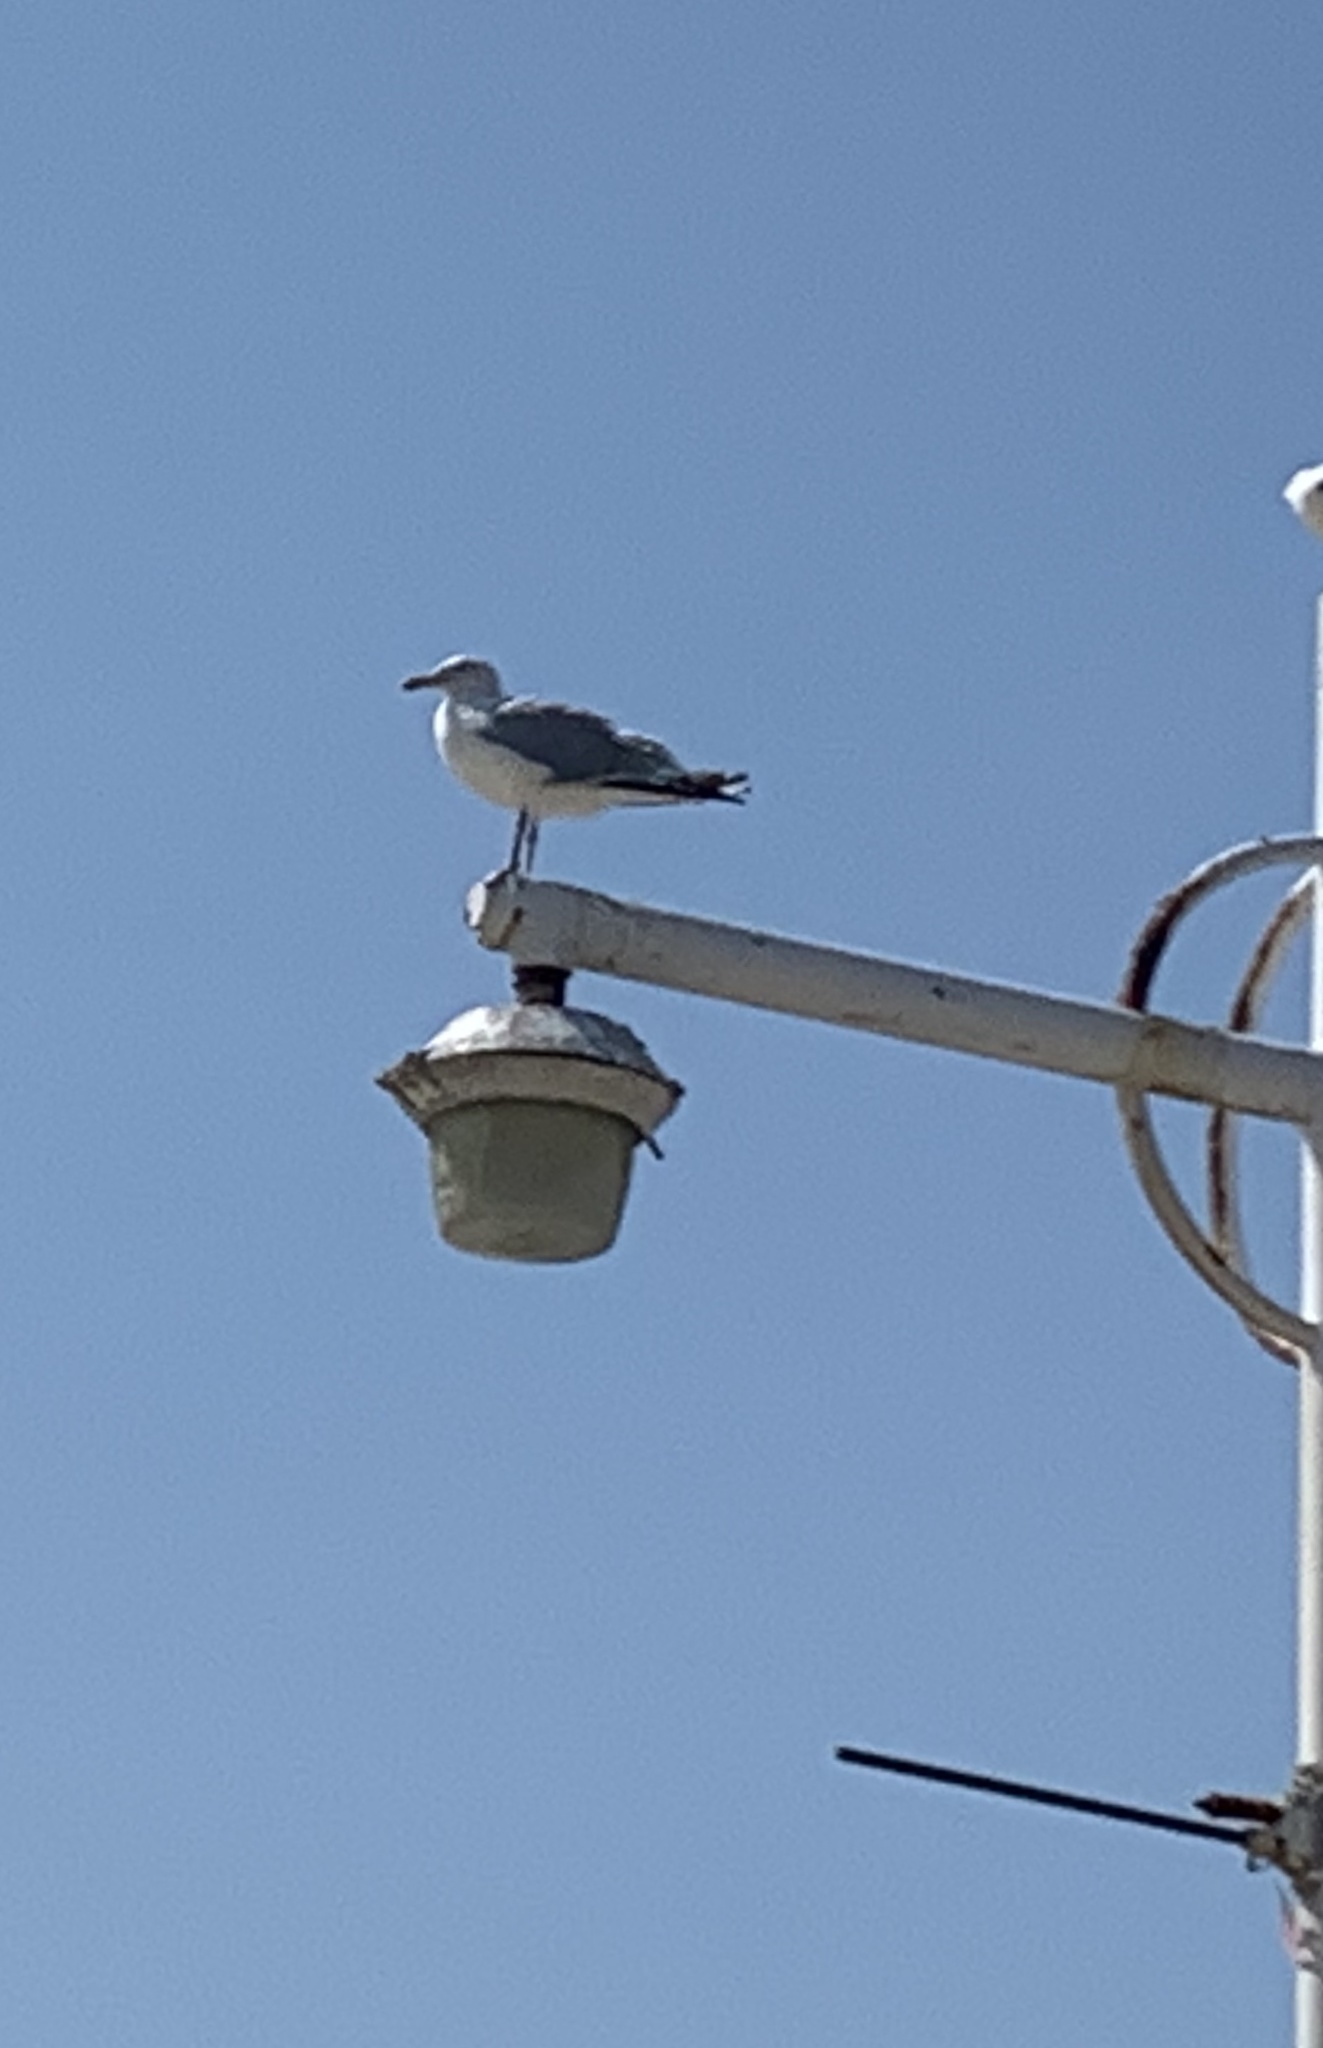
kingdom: Animalia
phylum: Chordata
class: Aves
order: Charadriiformes
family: Laridae
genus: Larus
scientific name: Larus argentatus
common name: Herring gull
